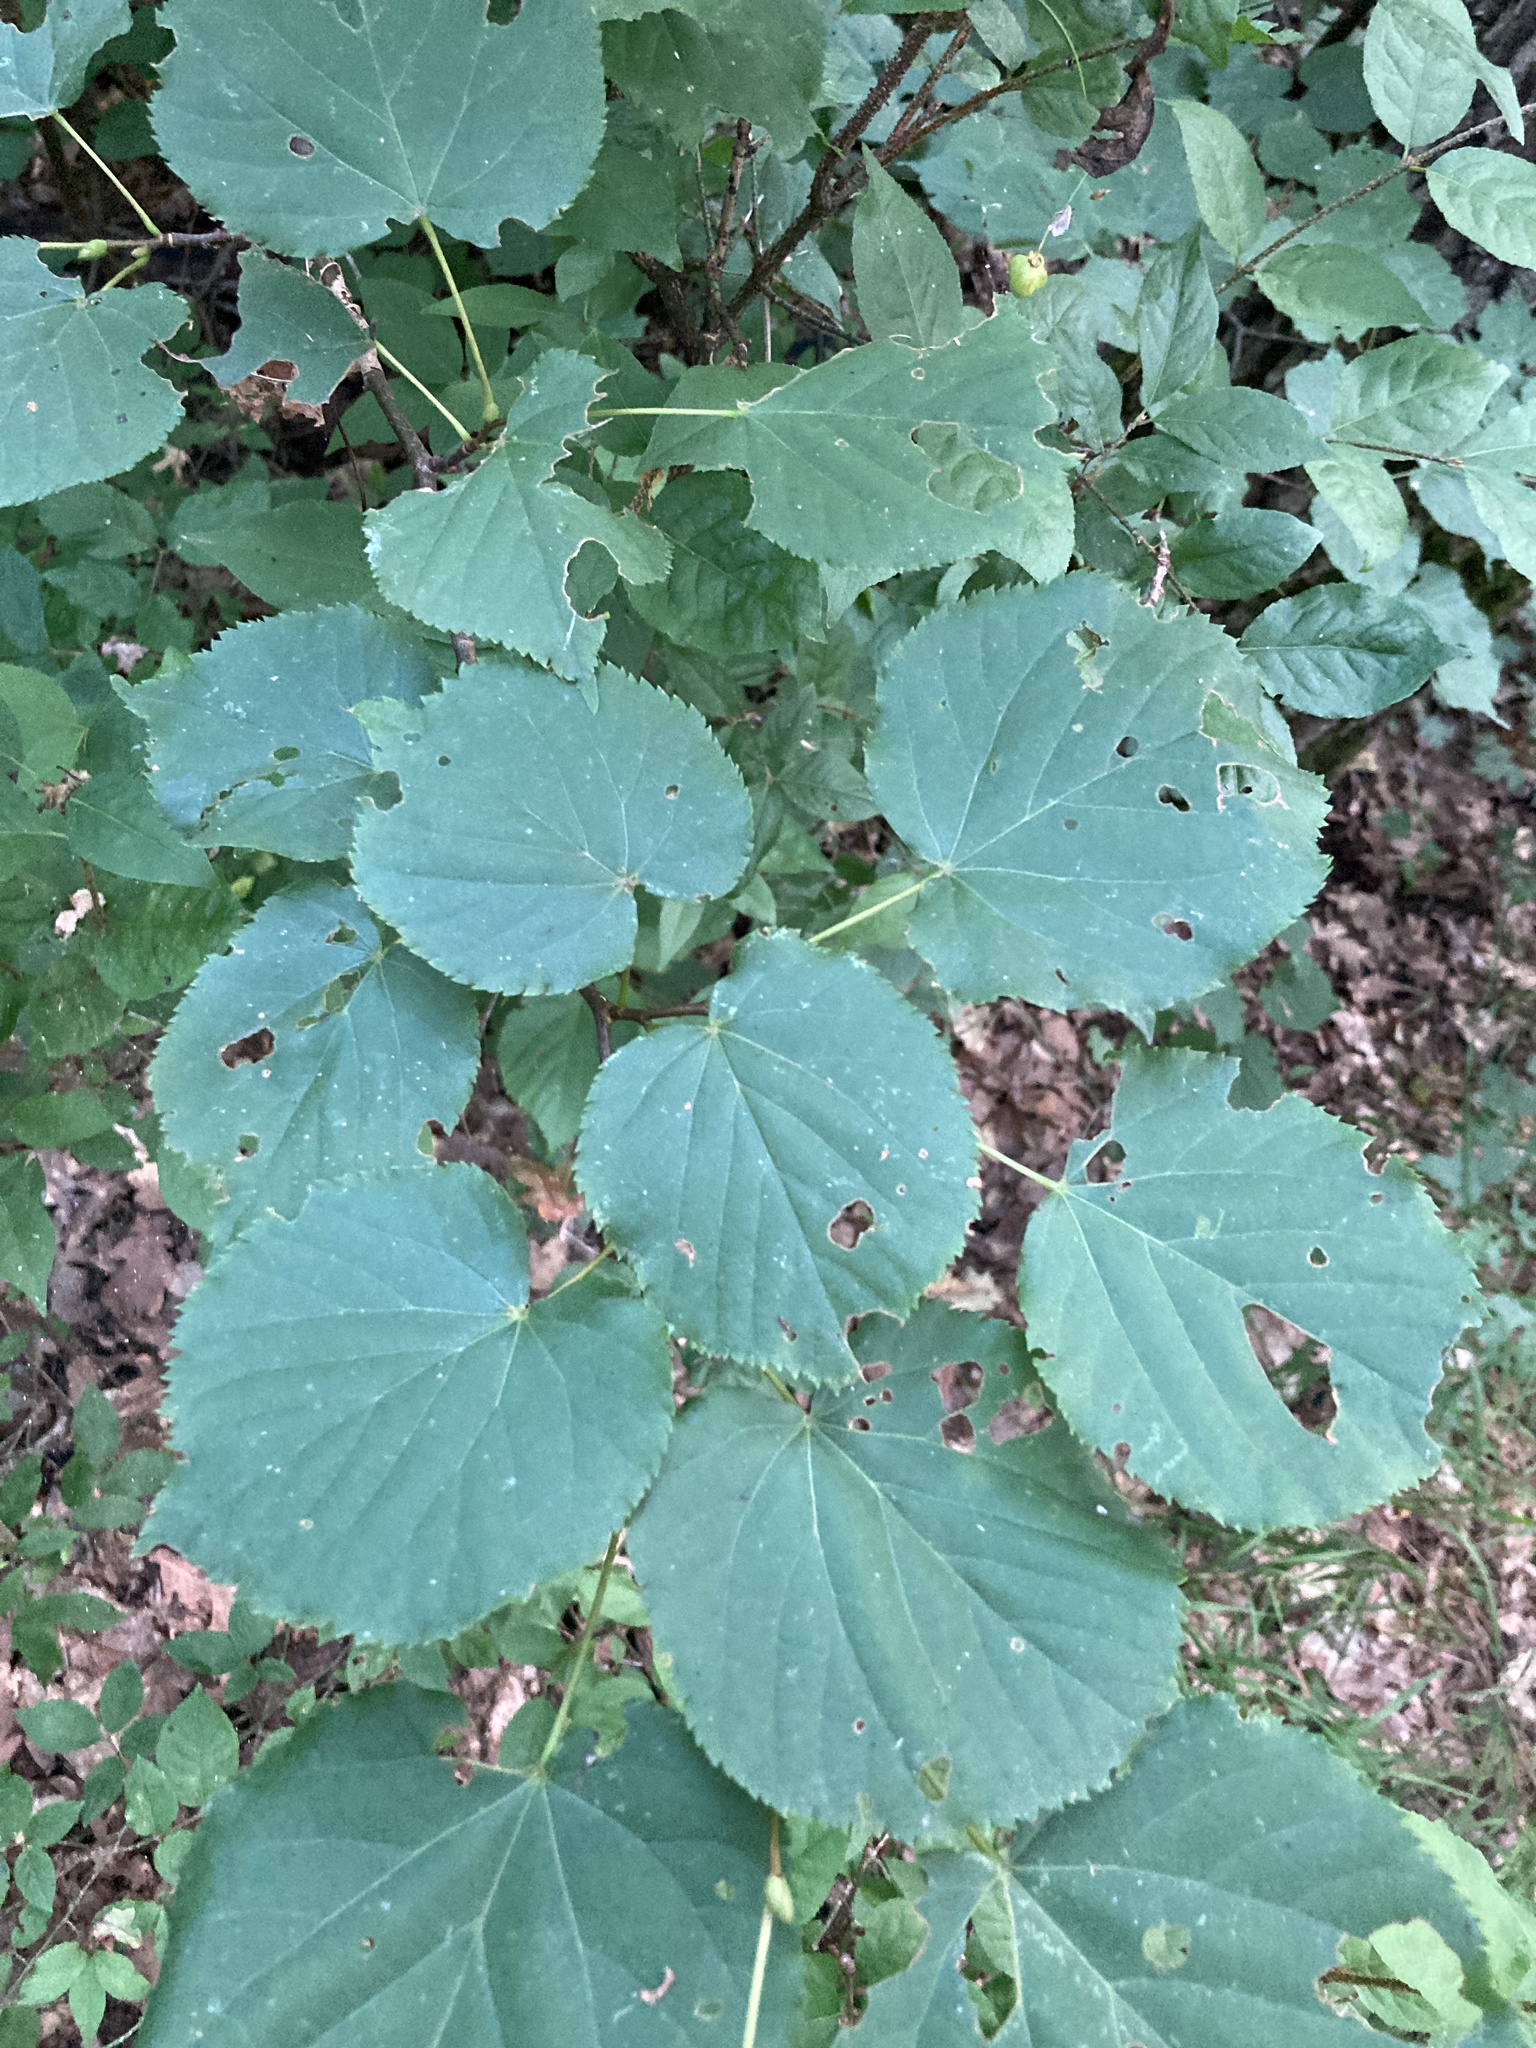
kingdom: Plantae
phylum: Tracheophyta
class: Magnoliopsida
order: Malvales
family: Malvaceae
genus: Tilia
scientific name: Tilia cordata
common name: Small-leaved lime
